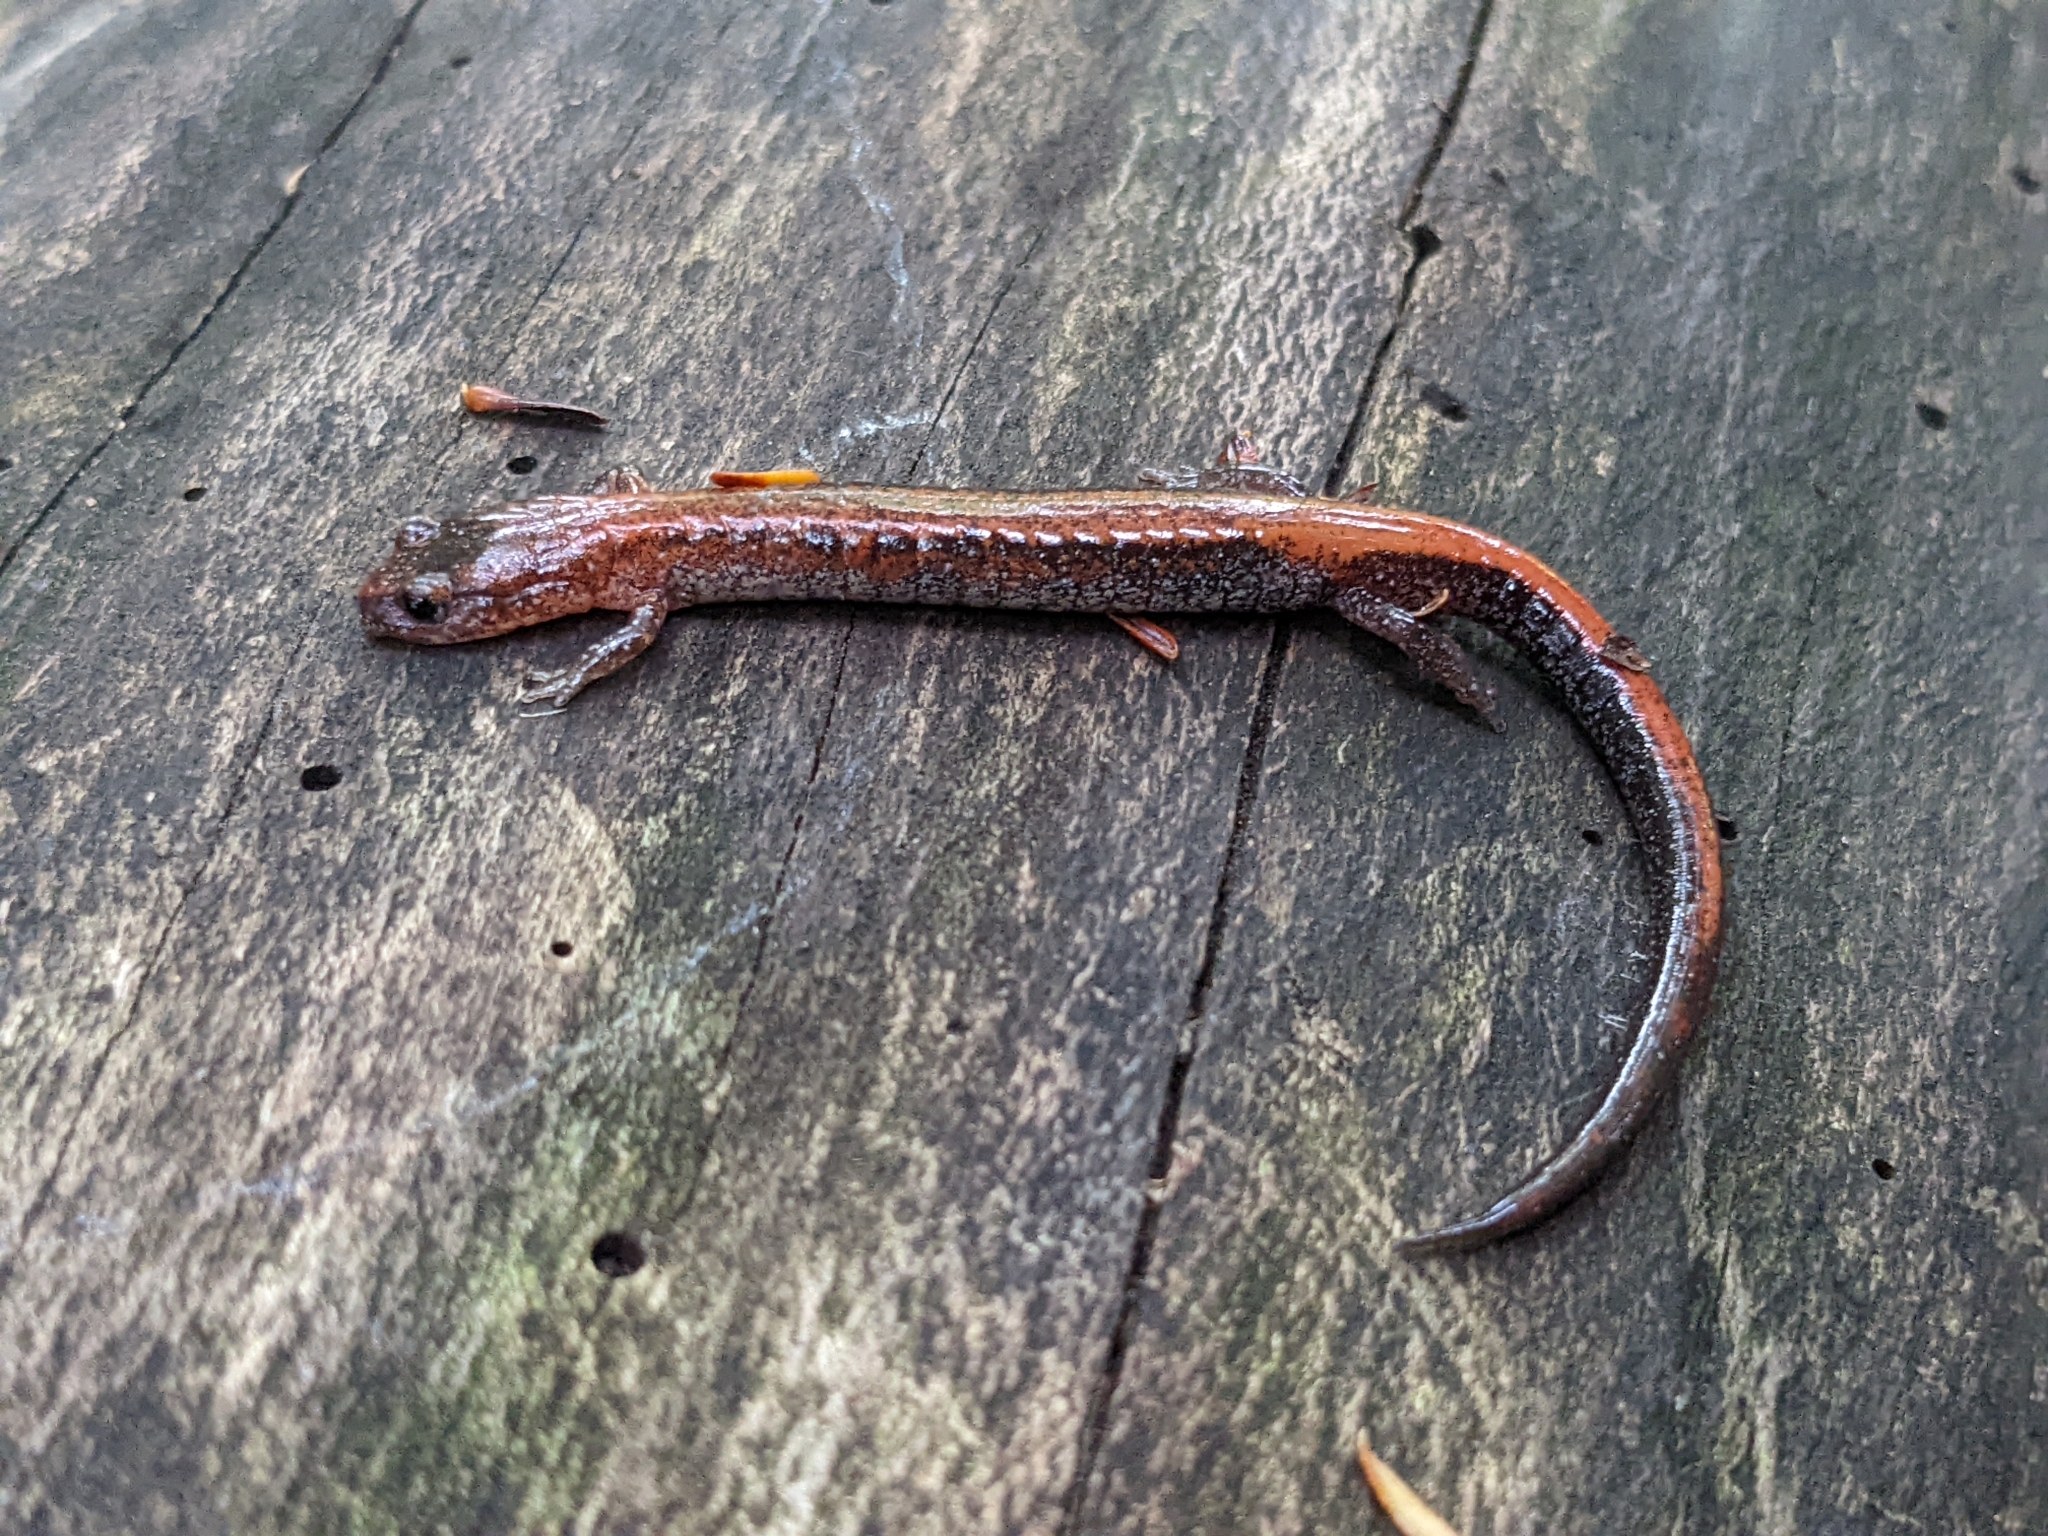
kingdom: Animalia
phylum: Chordata
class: Amphibia
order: Caudata
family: Plethodontidae
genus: Plethodon
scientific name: Plethodon cinereus
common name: Redback salamander
